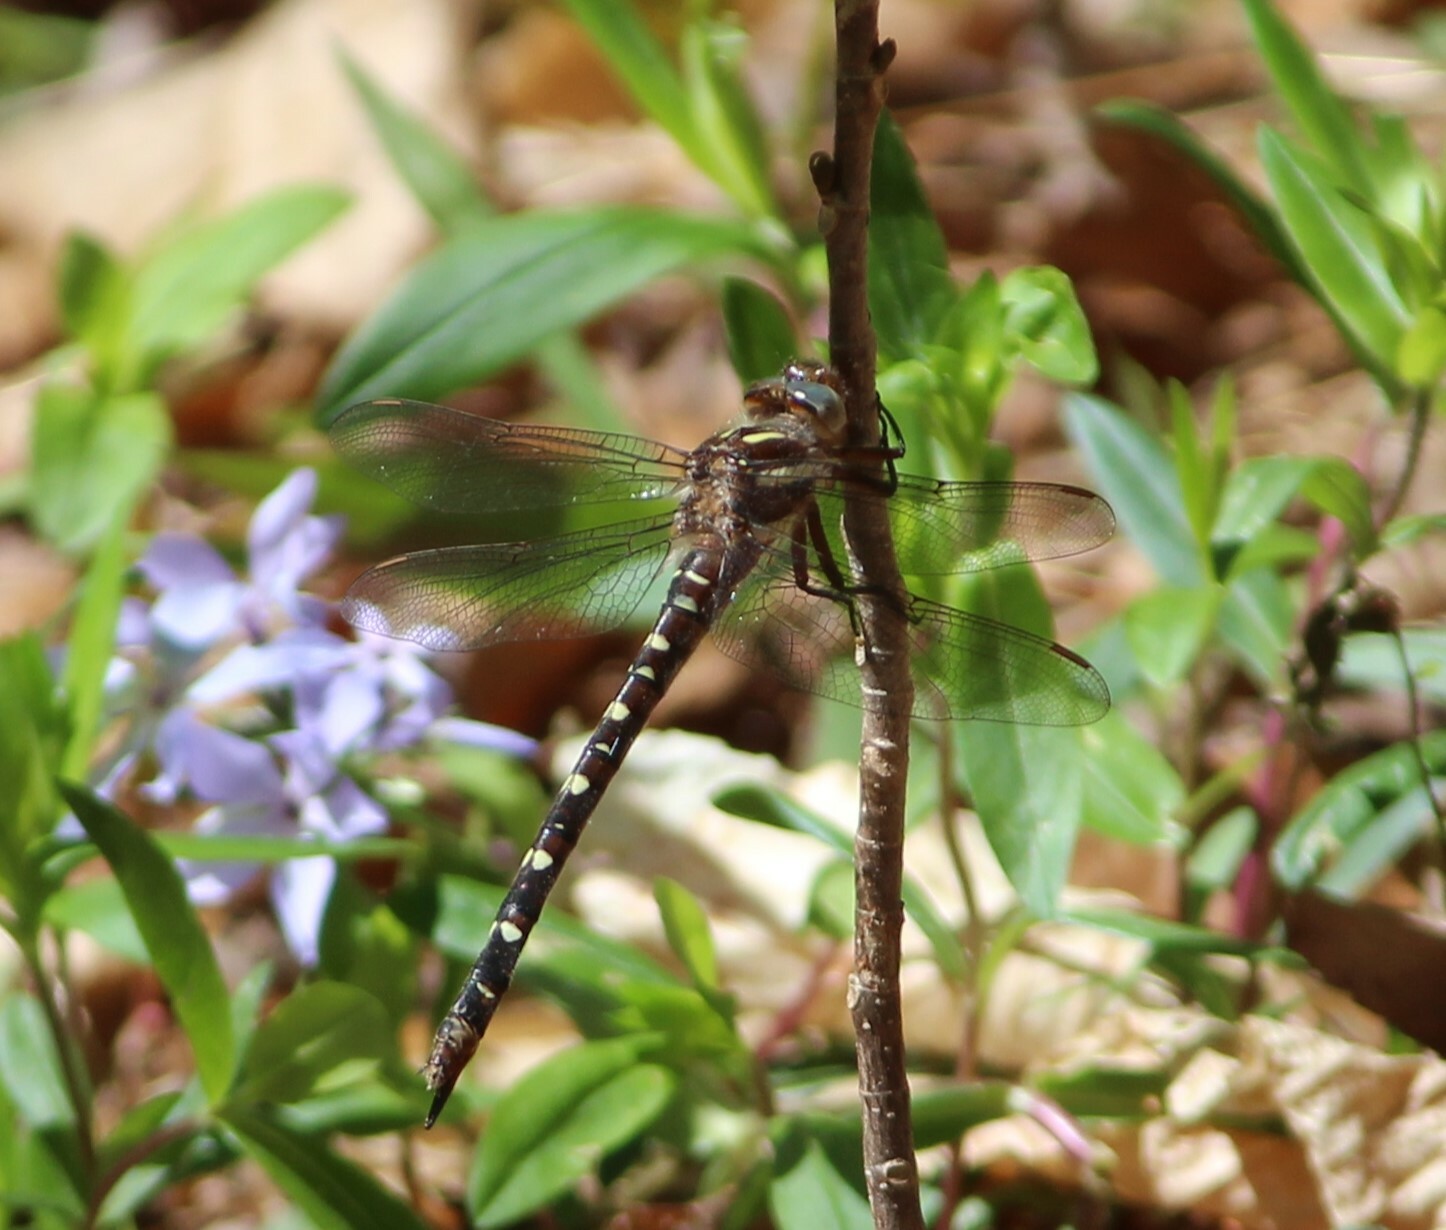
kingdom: Animalia
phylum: Arthropoda
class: Insecta
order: Odonata
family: Cordulegastridae
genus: Cordulegaster
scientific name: Cordulegaster maculata
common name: Twin-spotted spiketail
